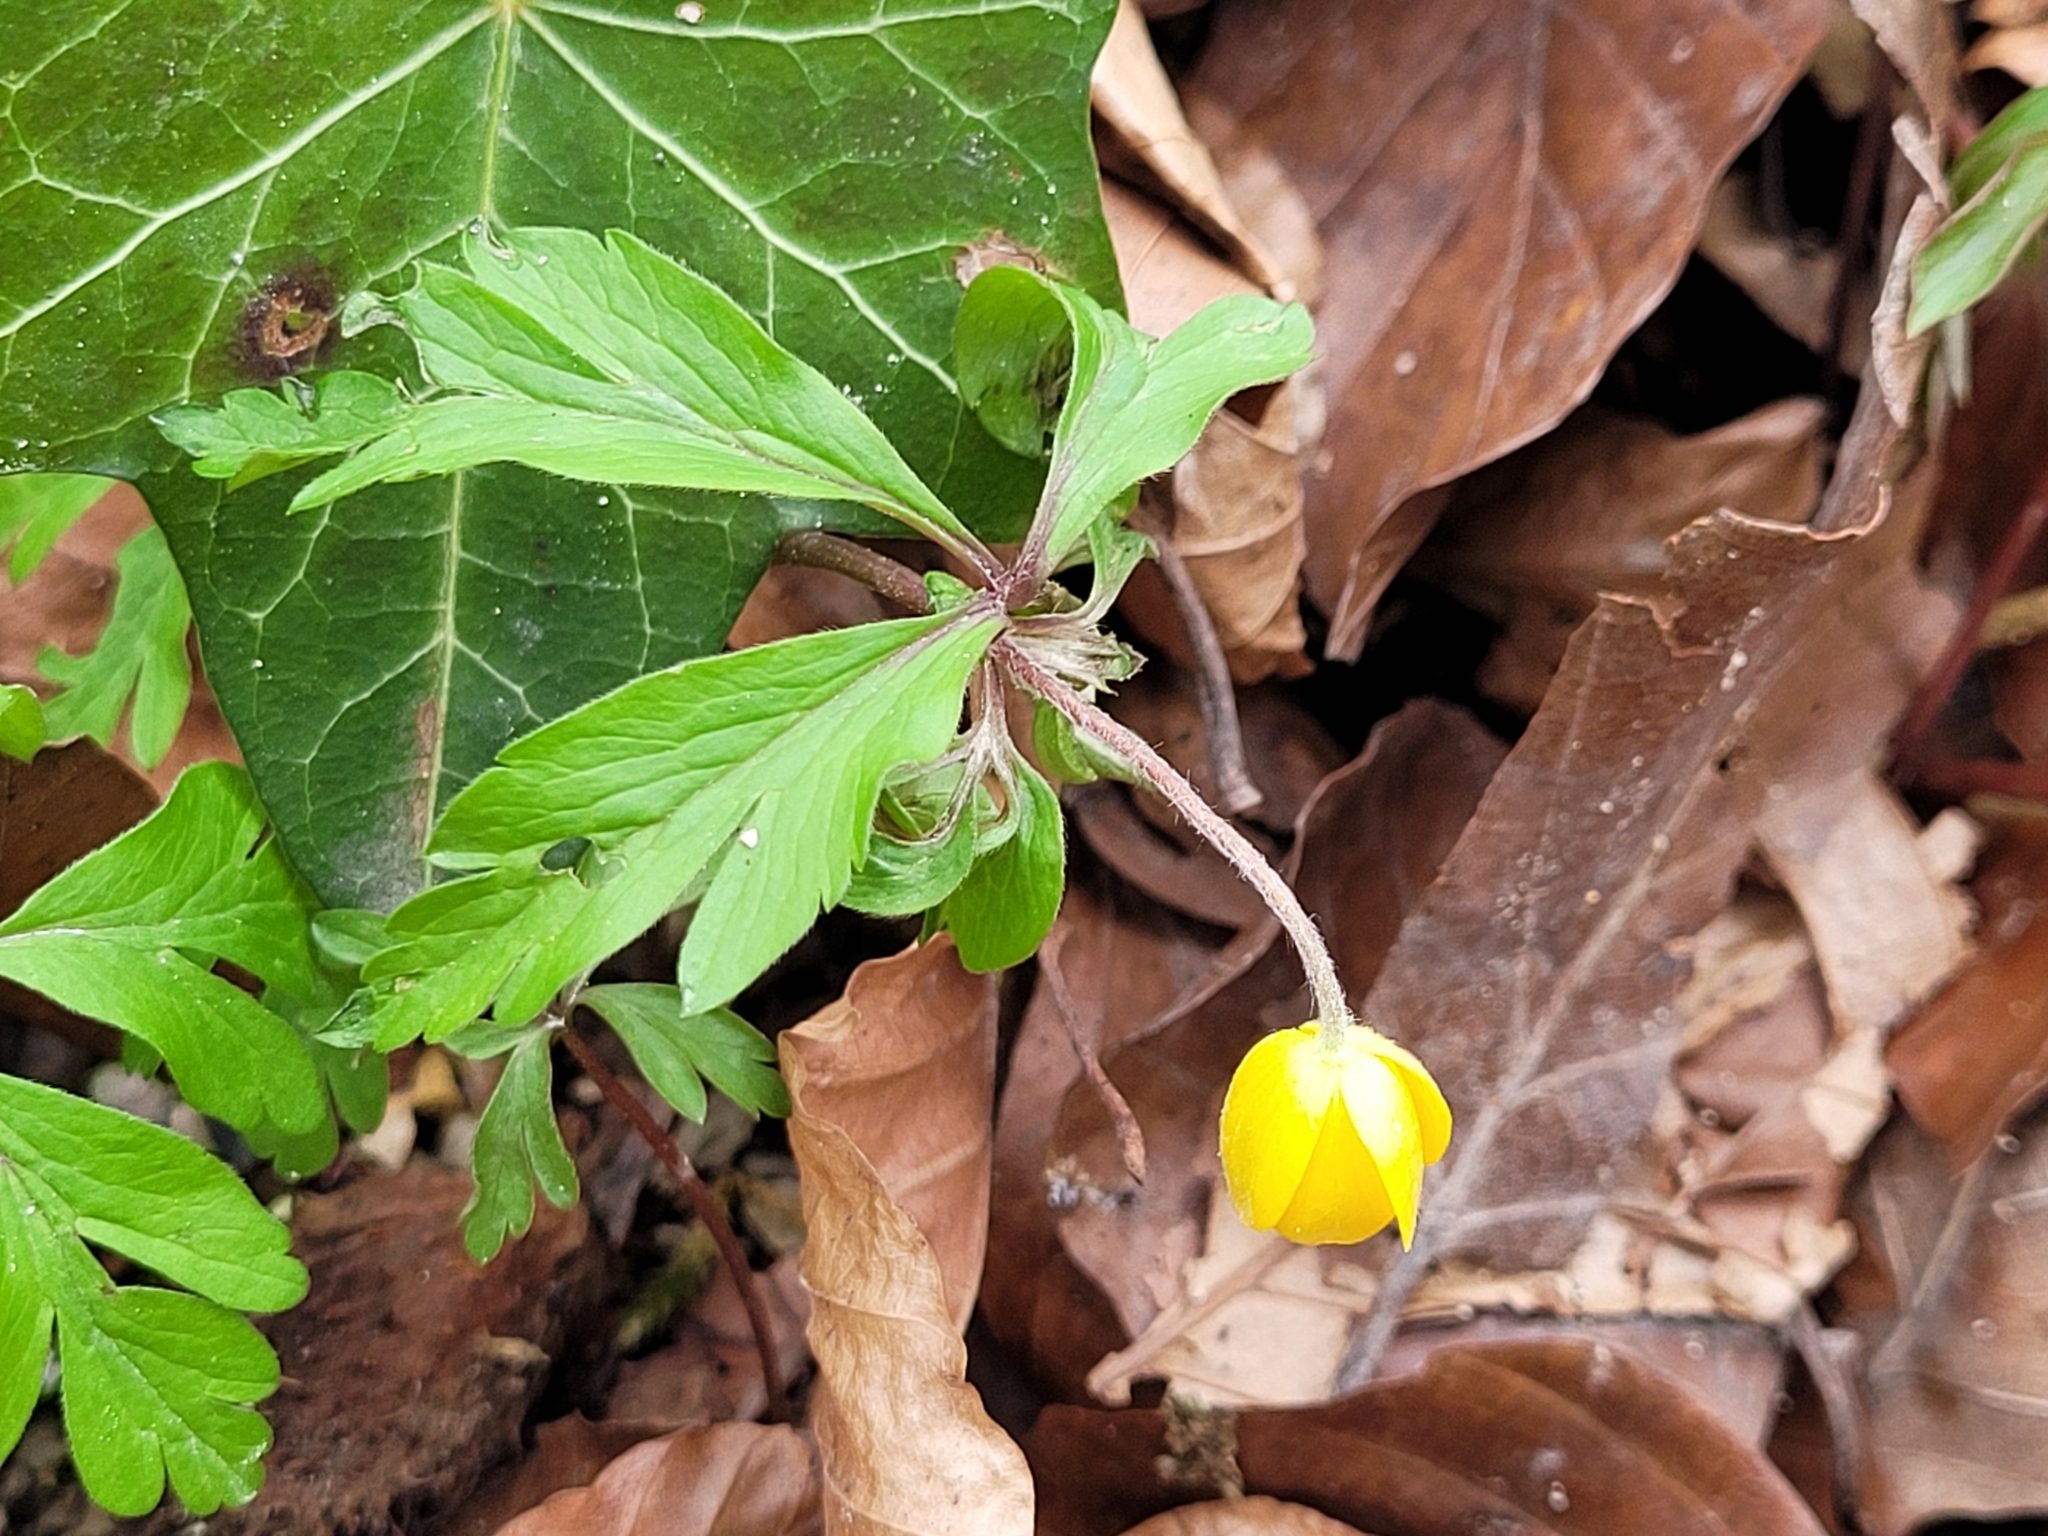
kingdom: Plantae
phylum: Tracheophyta
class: Magnoliopsida
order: Ranunculales
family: Ranunculaceae
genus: Anemone
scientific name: Anemone ranunculoides
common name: Yellow anemone
